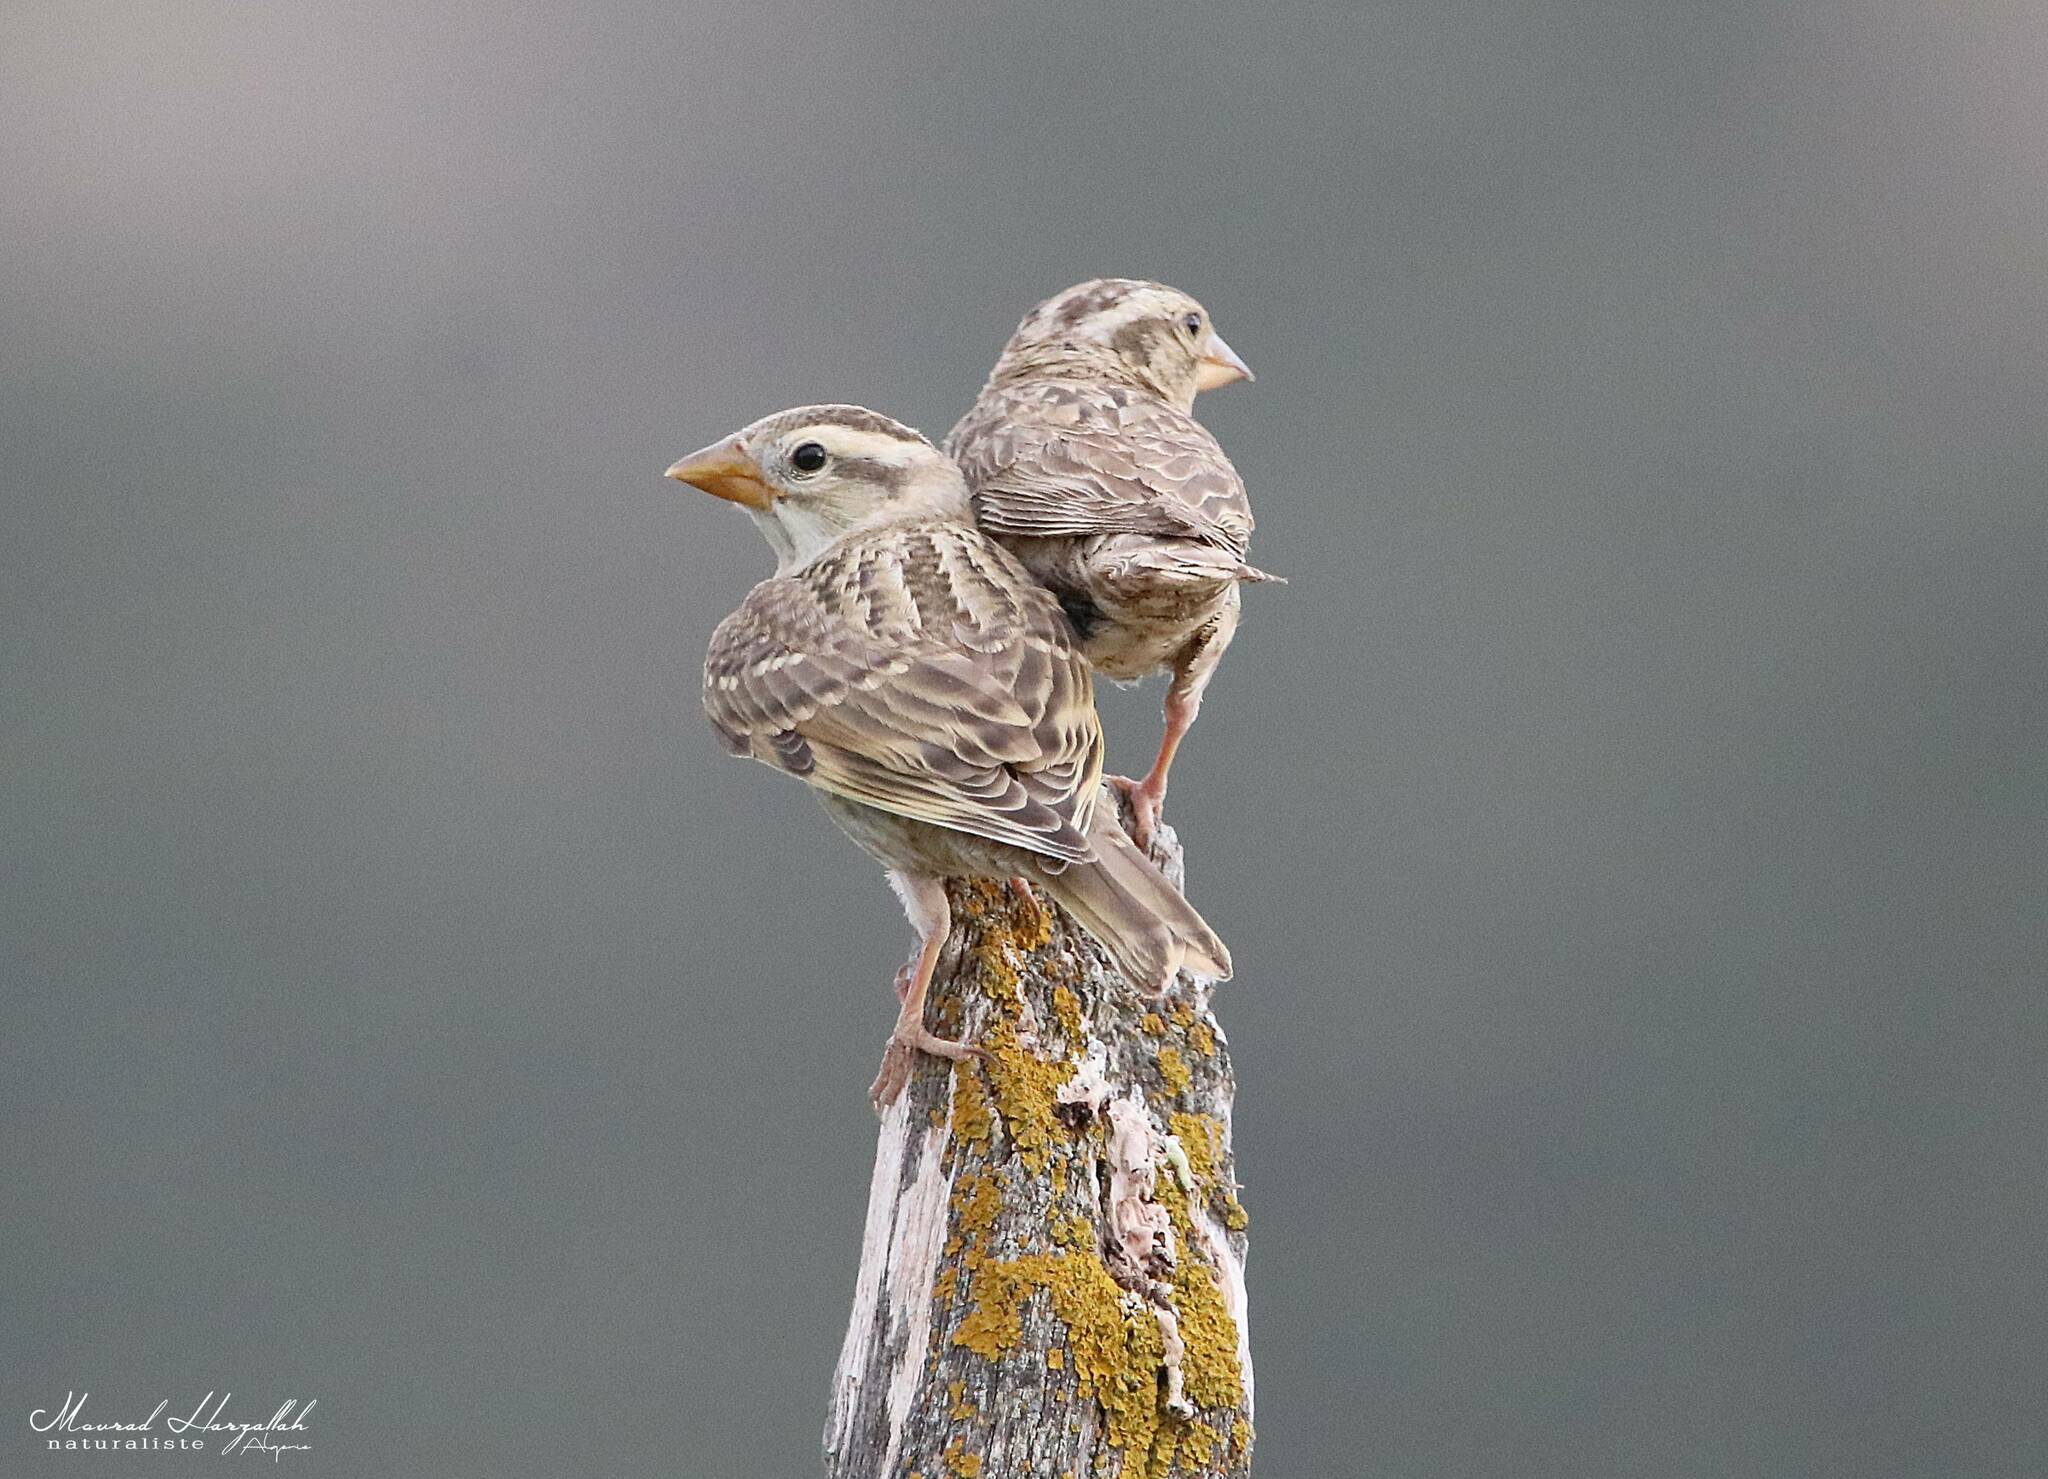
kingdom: Animalia
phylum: Chordata
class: Aves
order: Passeriformes
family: Passeridae
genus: Petronia
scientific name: Petronia petronia
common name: Rock sparrow
